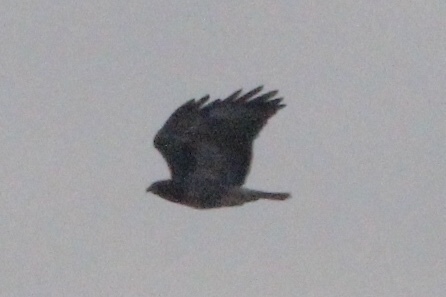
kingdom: Animalia
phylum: Chordata
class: Aves
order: Accipitriformes
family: Accipitridae
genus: Buteo
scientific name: Buteo jamaicensis
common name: Red-tailed hawk
